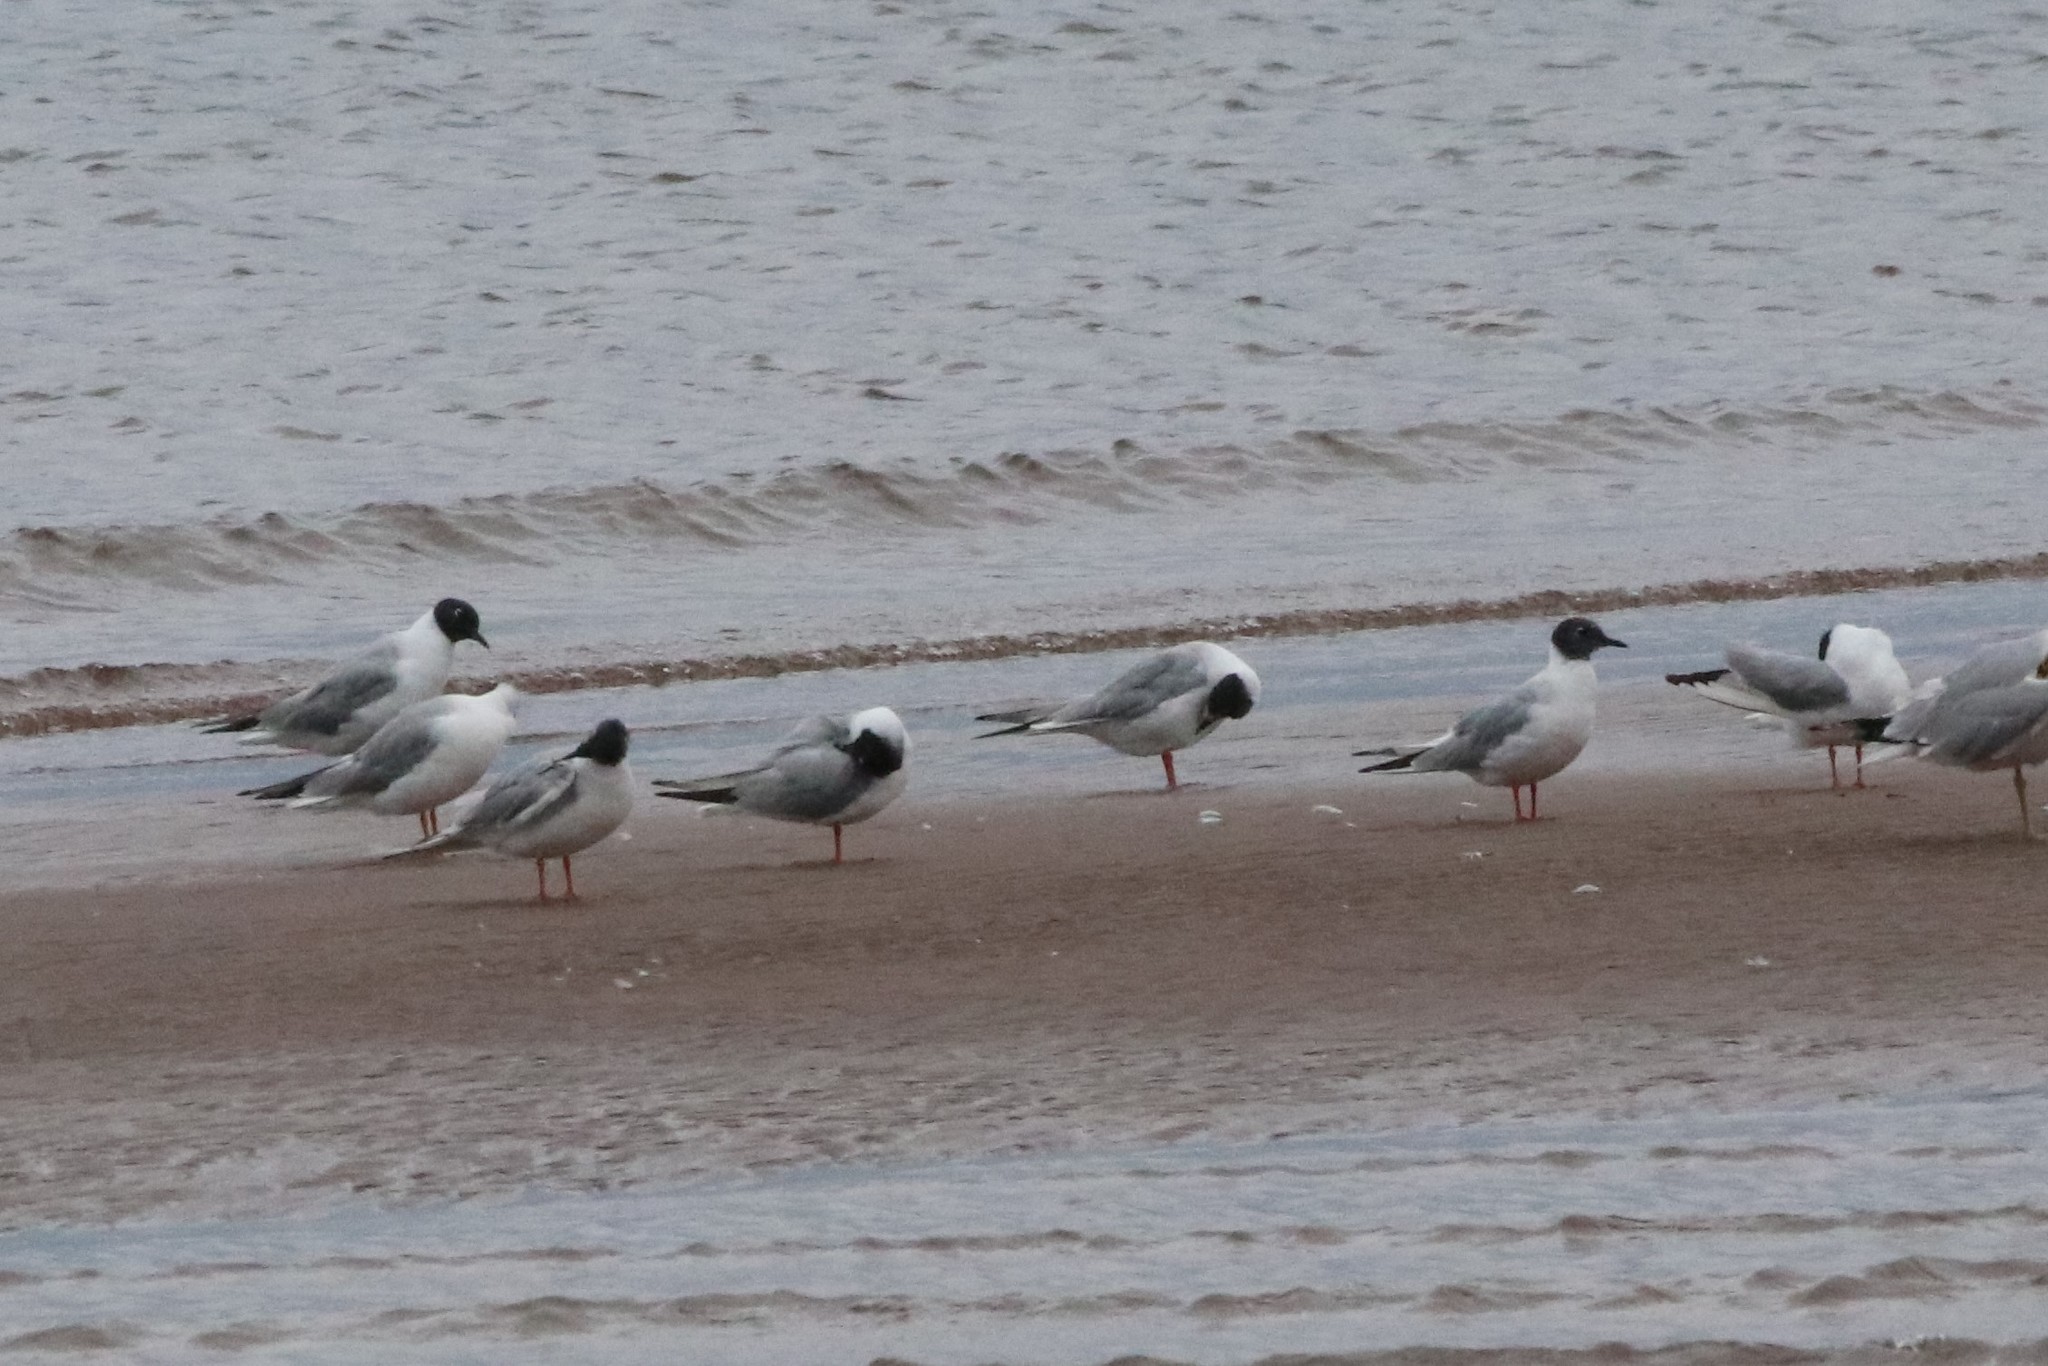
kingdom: Animalia
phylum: Chordata
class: Aves
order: Charadriiformes
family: Laridae
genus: Chroicocephalus
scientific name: Chroicocephalus philadelphia
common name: Bonaparte's gull
